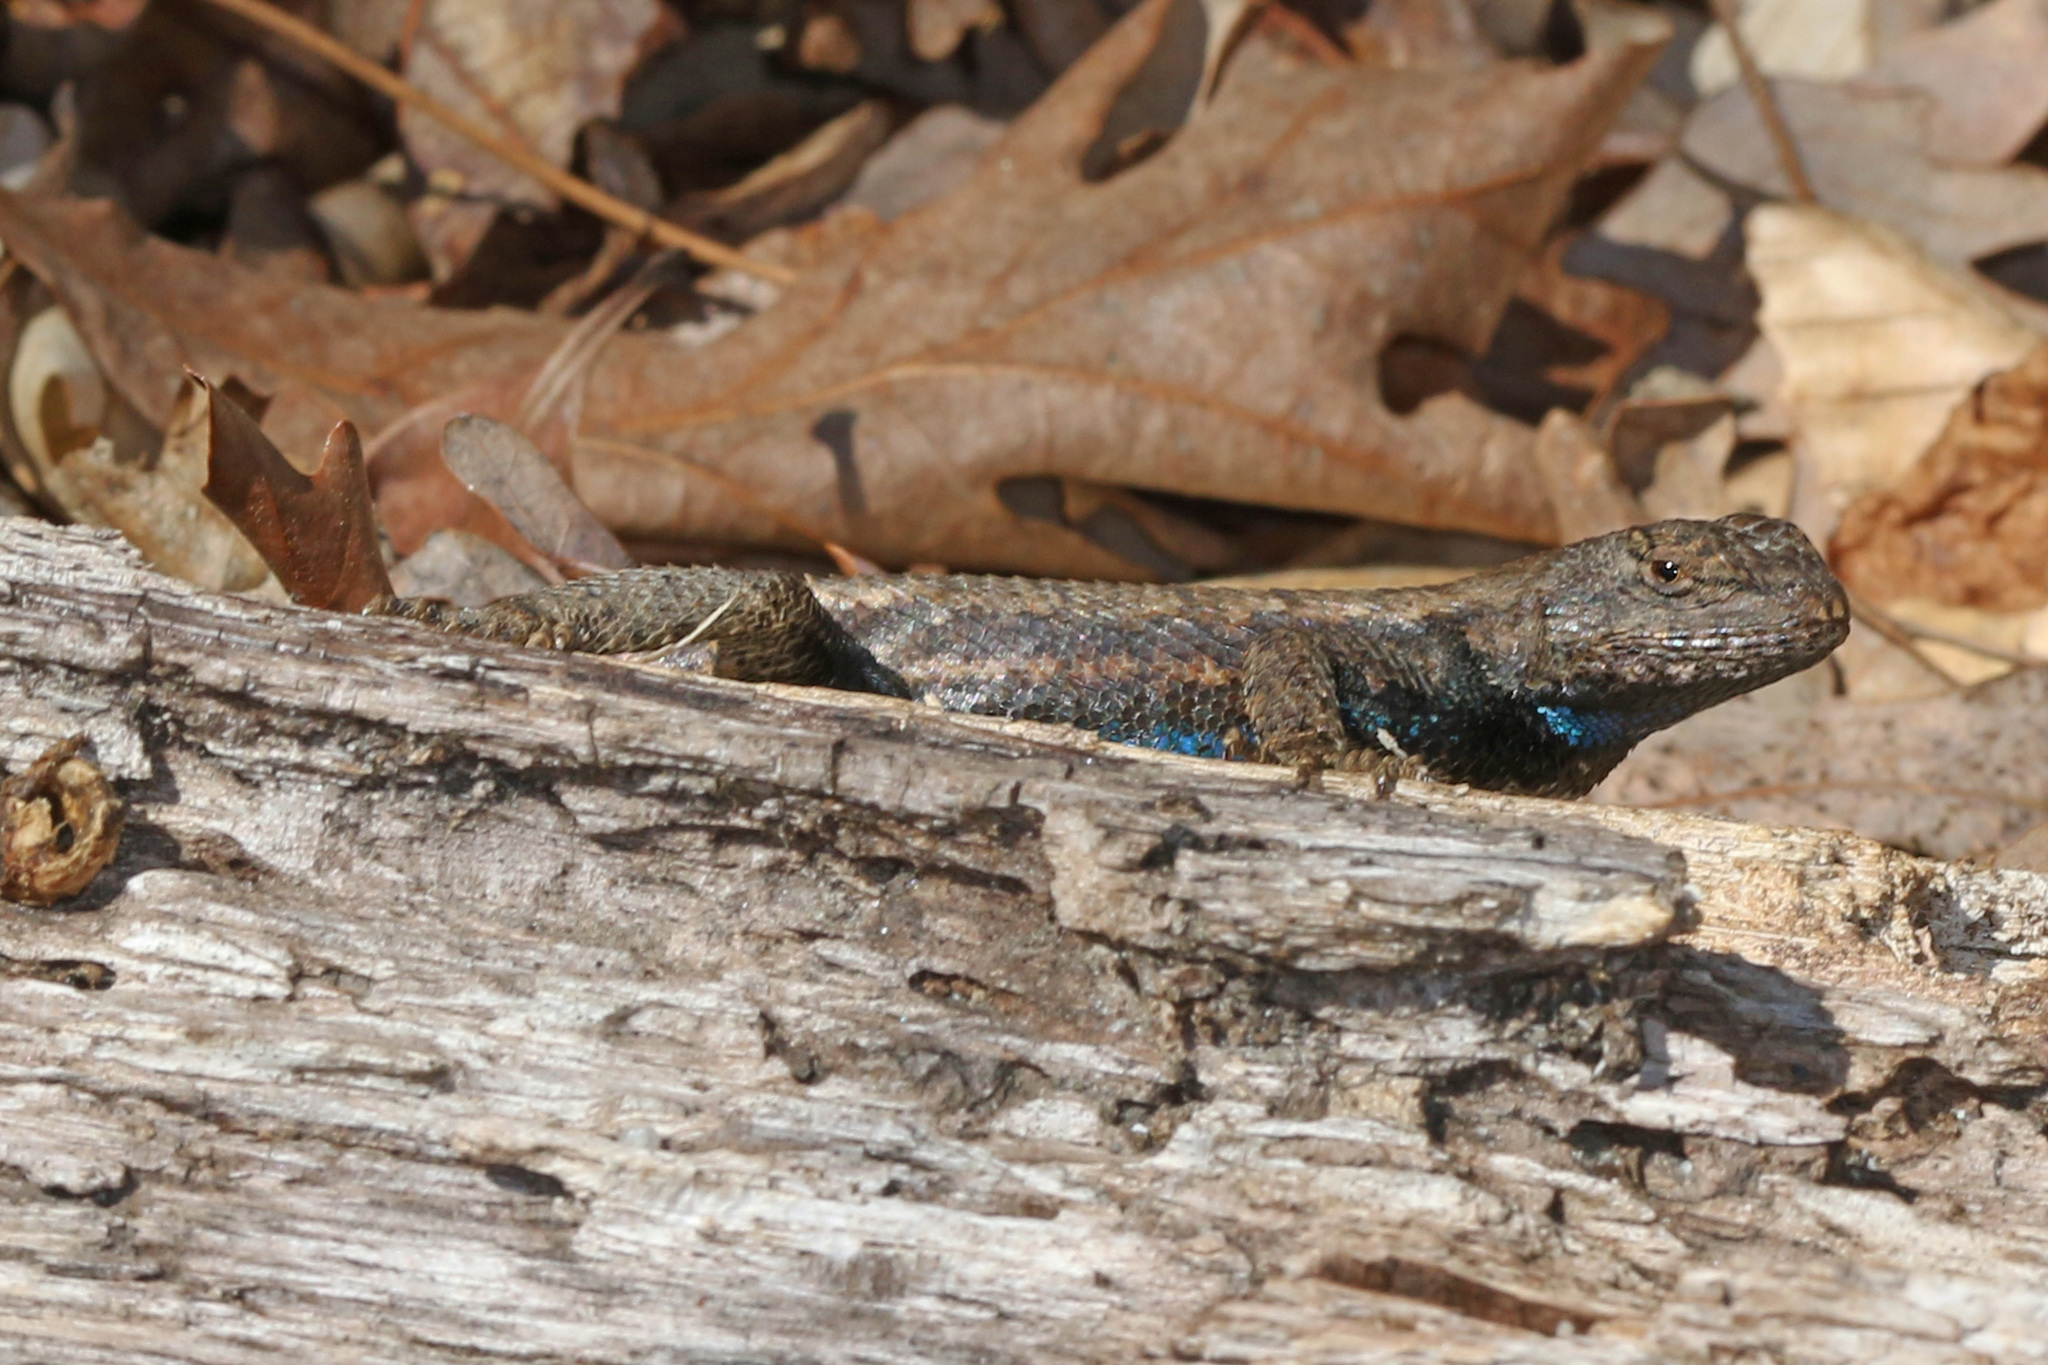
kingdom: Animalia
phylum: Chordata
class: Squamata
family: Phrynosomatidae
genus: Sceloporus
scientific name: Sceloporus undulatus
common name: Eastern fence lizard
